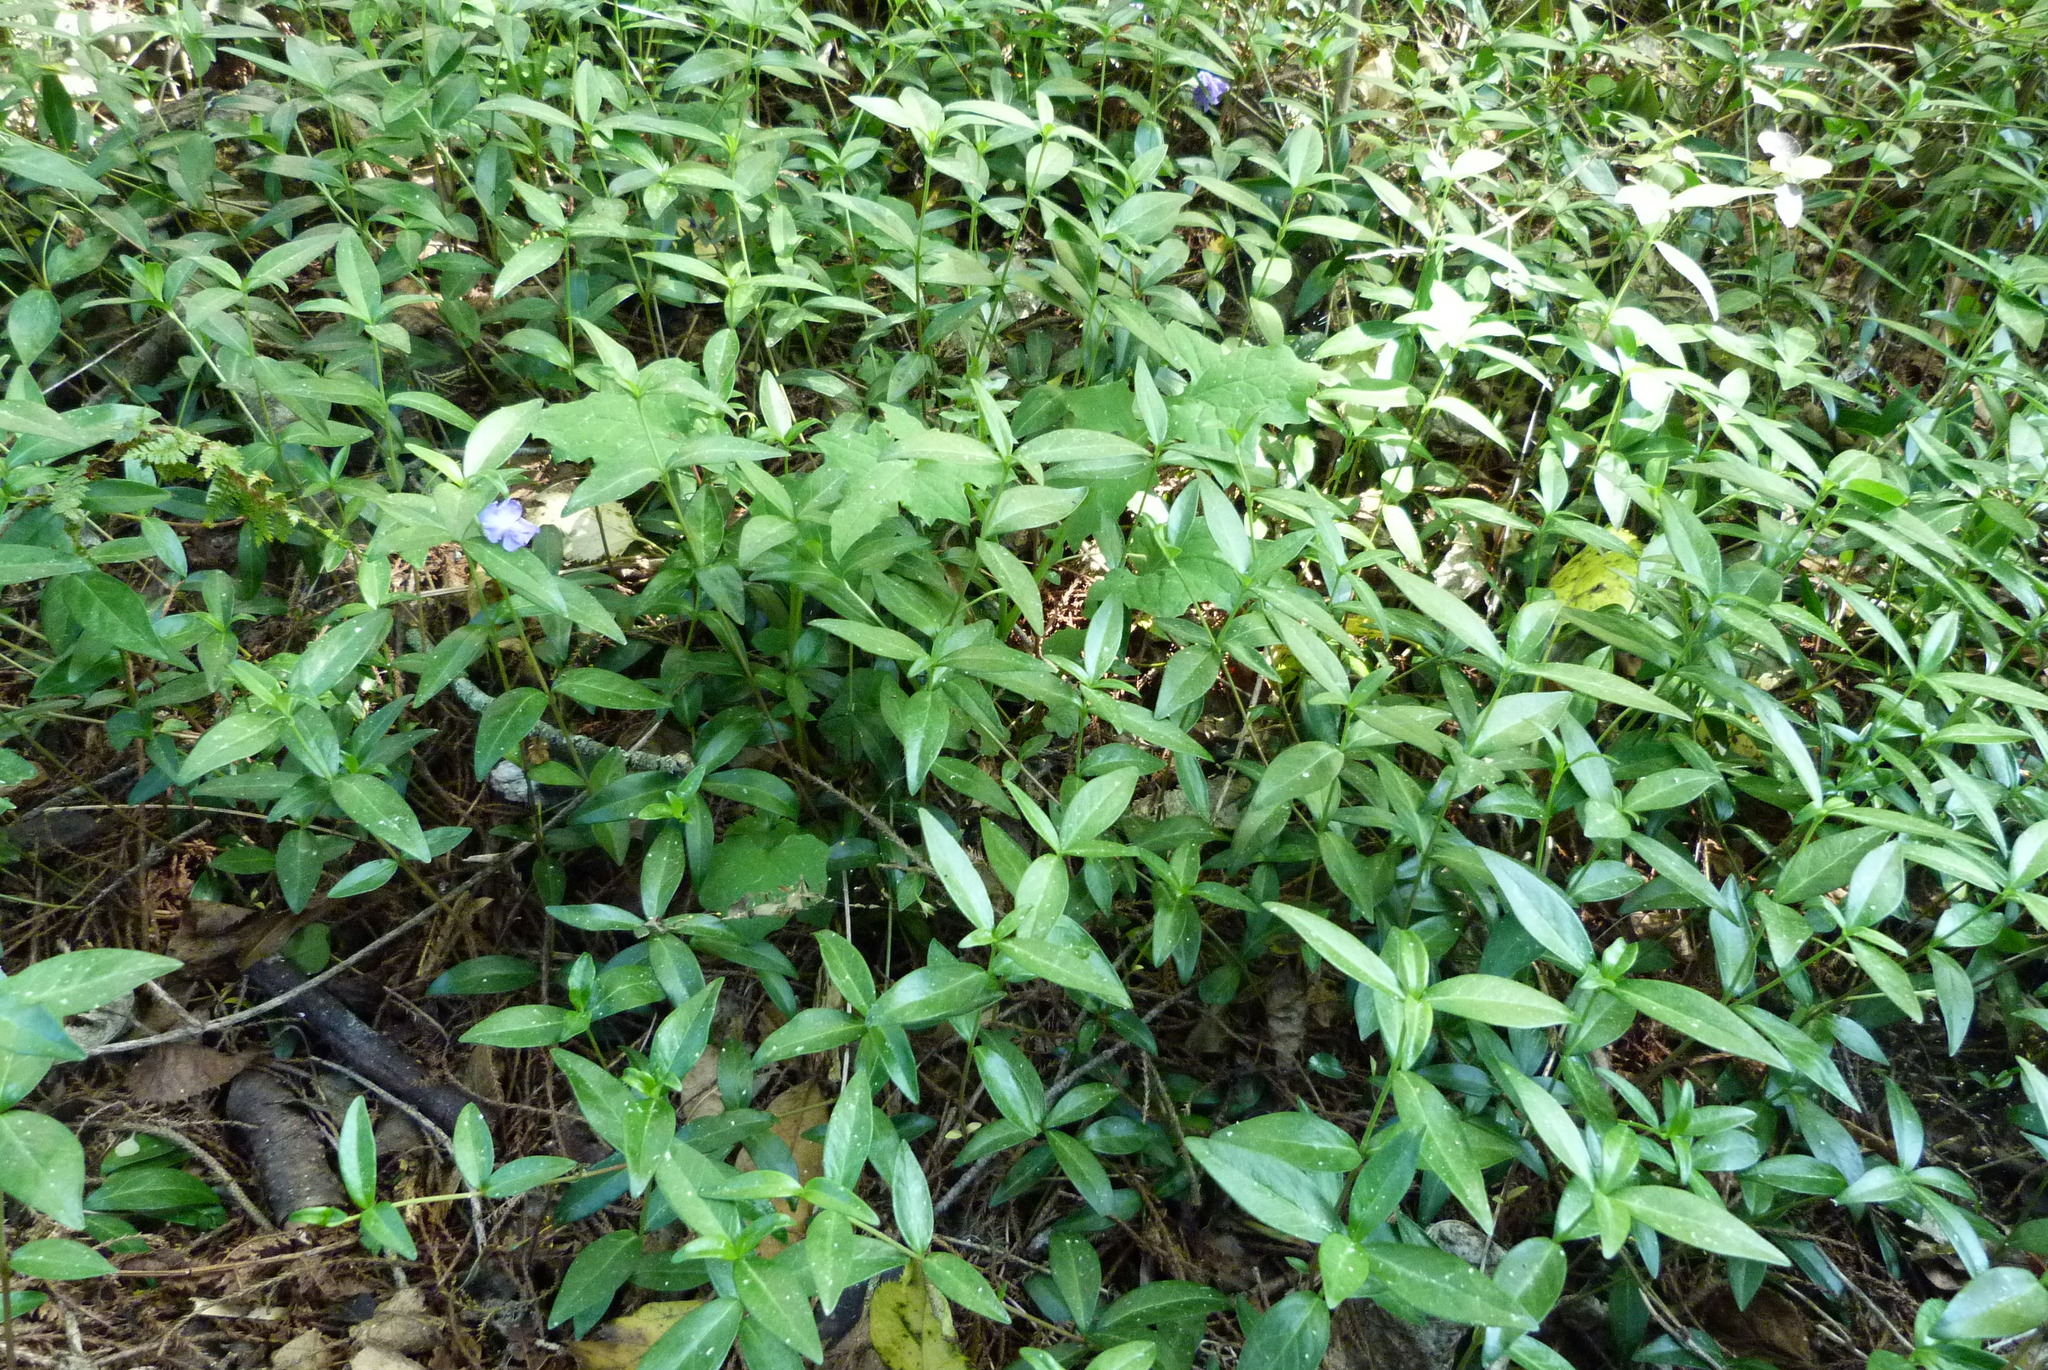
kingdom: Plantae
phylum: Tracheophyta
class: Magnoliopsida
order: Gentianales
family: Apocynaceae
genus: Vinca
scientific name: Vinca minor
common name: Lesser periwinkle
